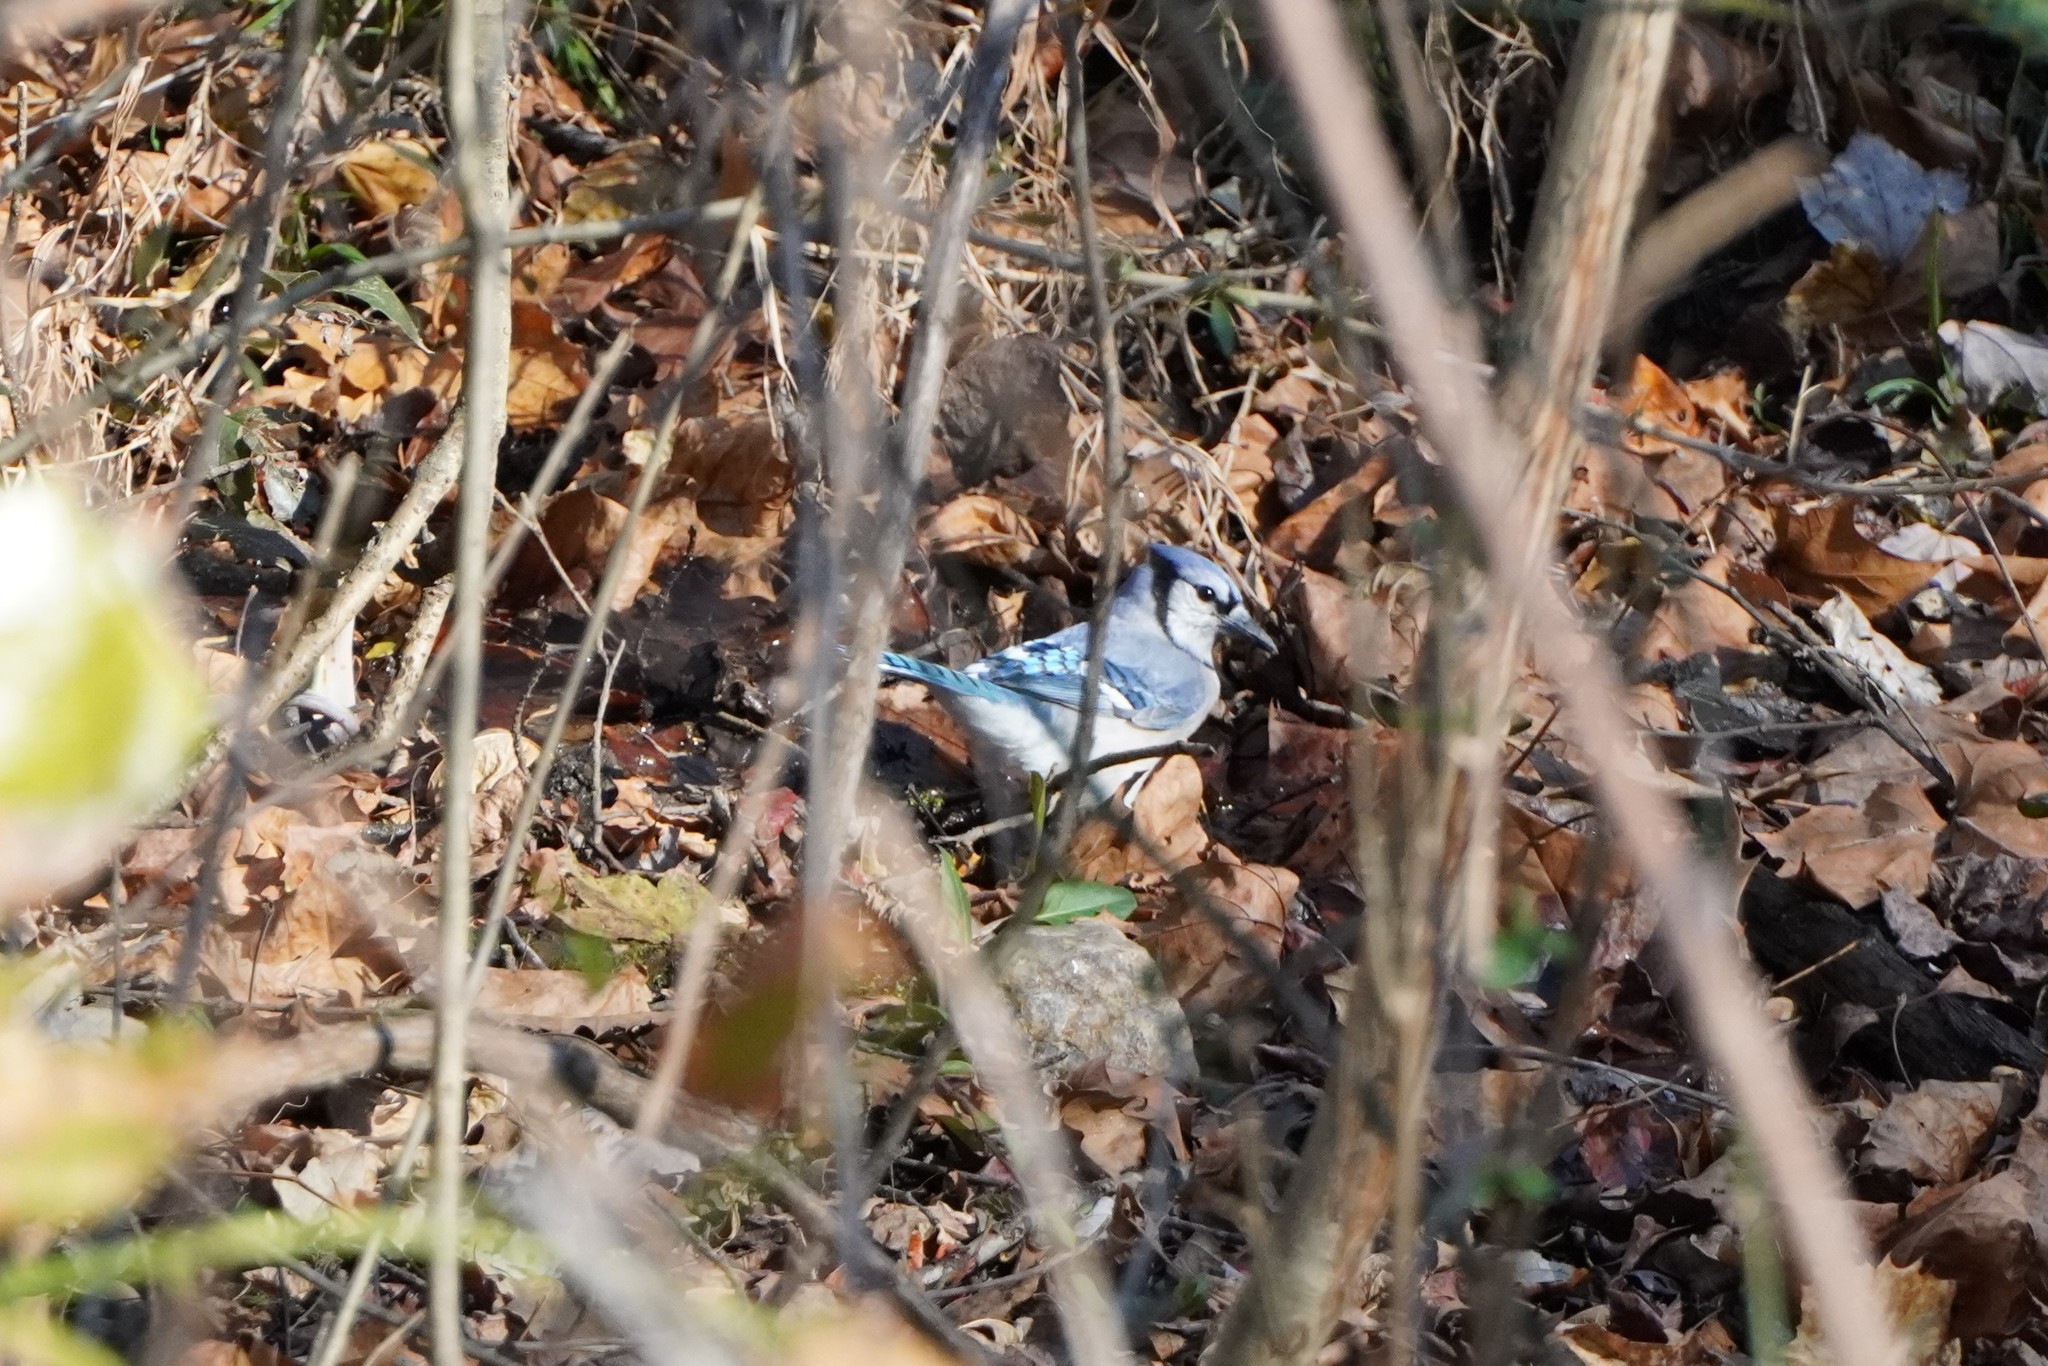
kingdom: Animalia
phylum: Chordata
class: Aves
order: Passeriformes
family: Corvidae
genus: Cyanocitta
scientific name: Cyanocitta cristata
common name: Blue jay
